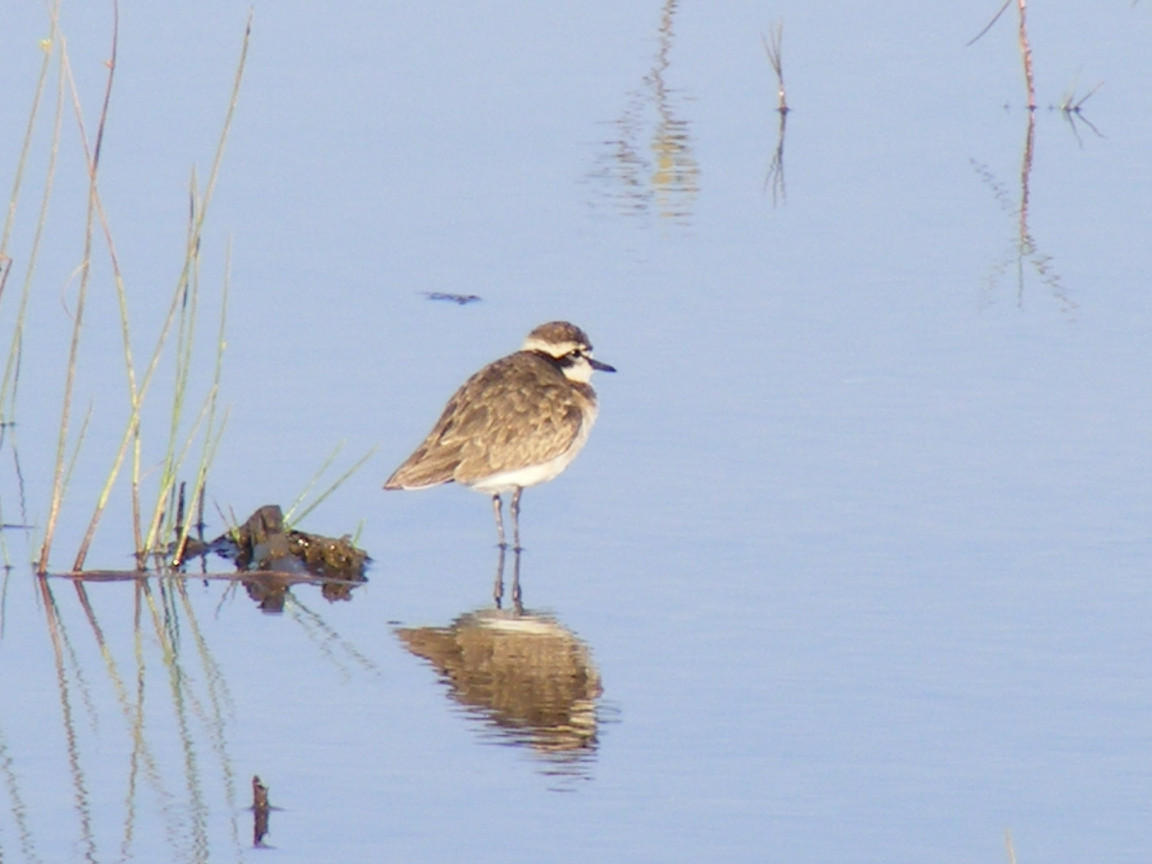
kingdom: Animalia
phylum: Chordata
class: Aves
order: Charadriiformes
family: Charadriidae
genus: Anarhynchus
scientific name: Anarhynchus
